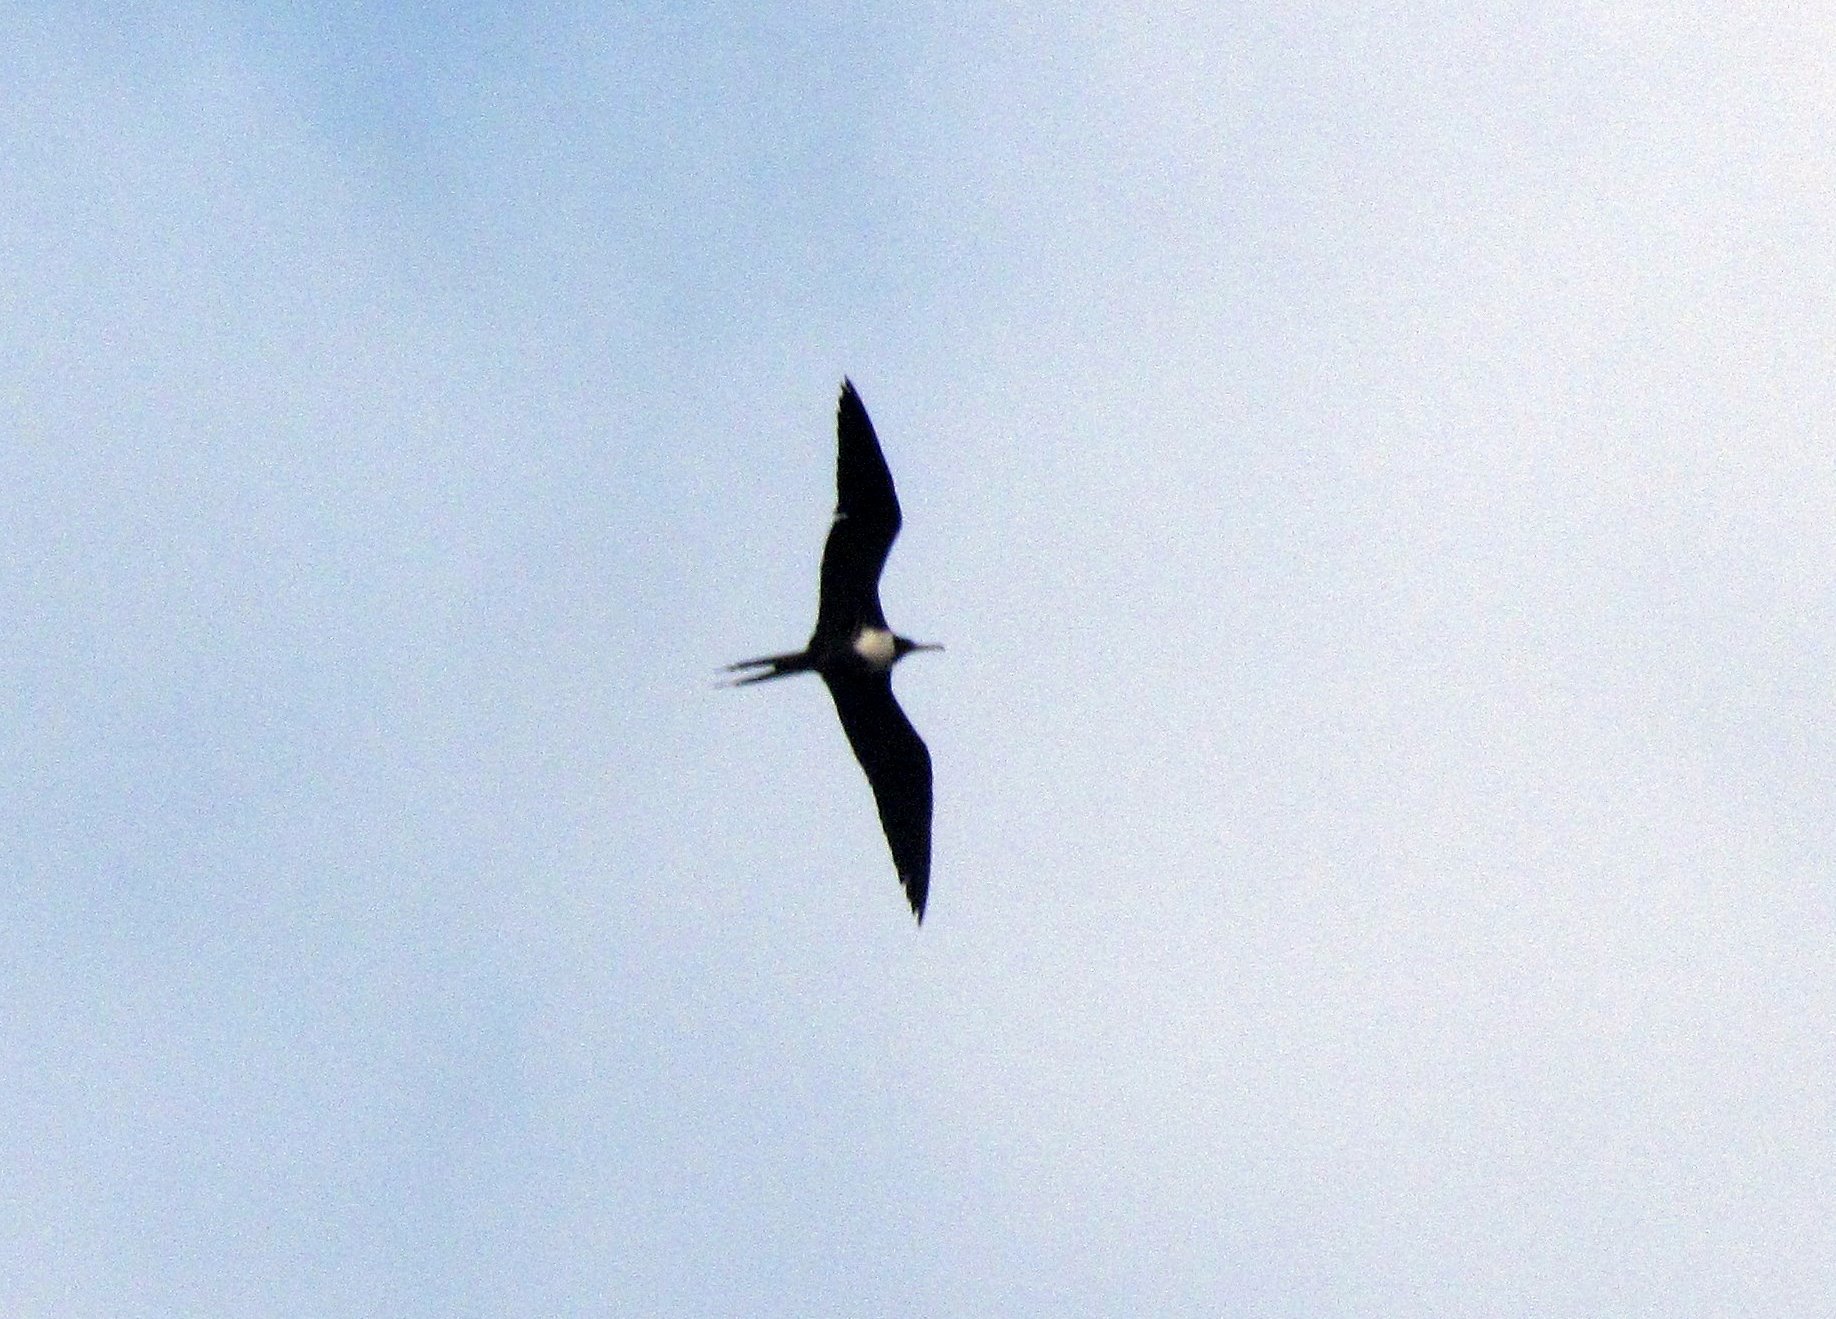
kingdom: Animalia
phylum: Chordata
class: Aves
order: Suliformes
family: Fregatidae
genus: Fregata
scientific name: Fregata magnificens
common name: Magnificent frigatebird
